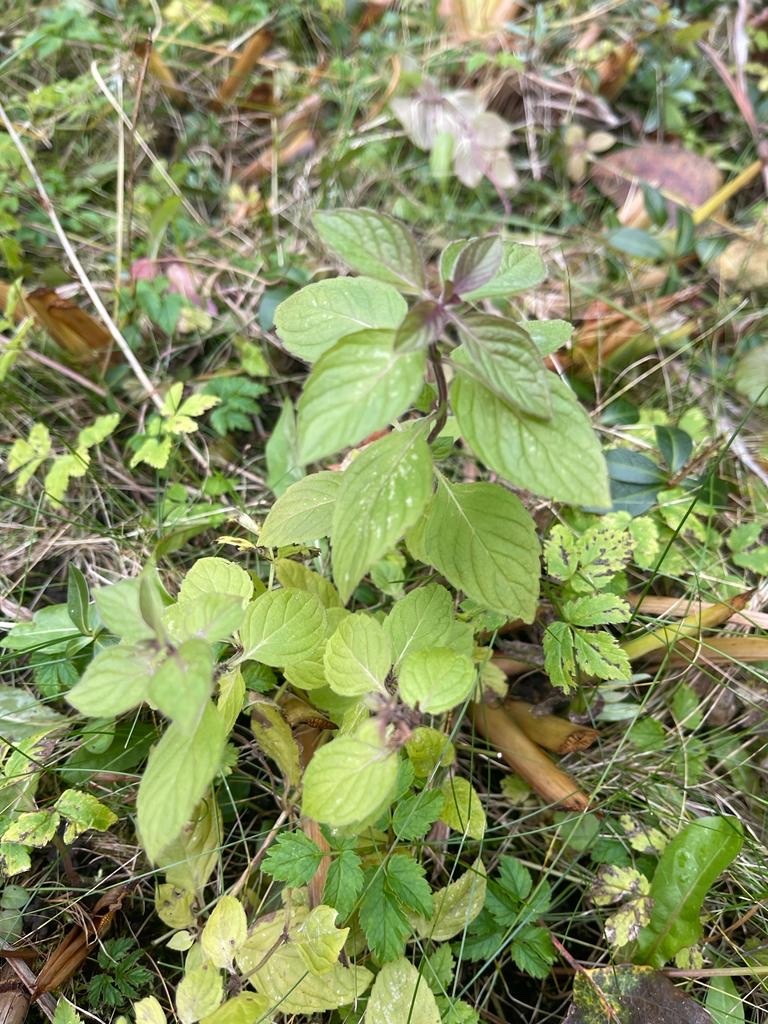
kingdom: Plantae
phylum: Tracheophyta
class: Magnoliopsida
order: Lamiales
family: Lamiaceae
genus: Mentha
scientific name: Mentha arvensis
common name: Corn mint
